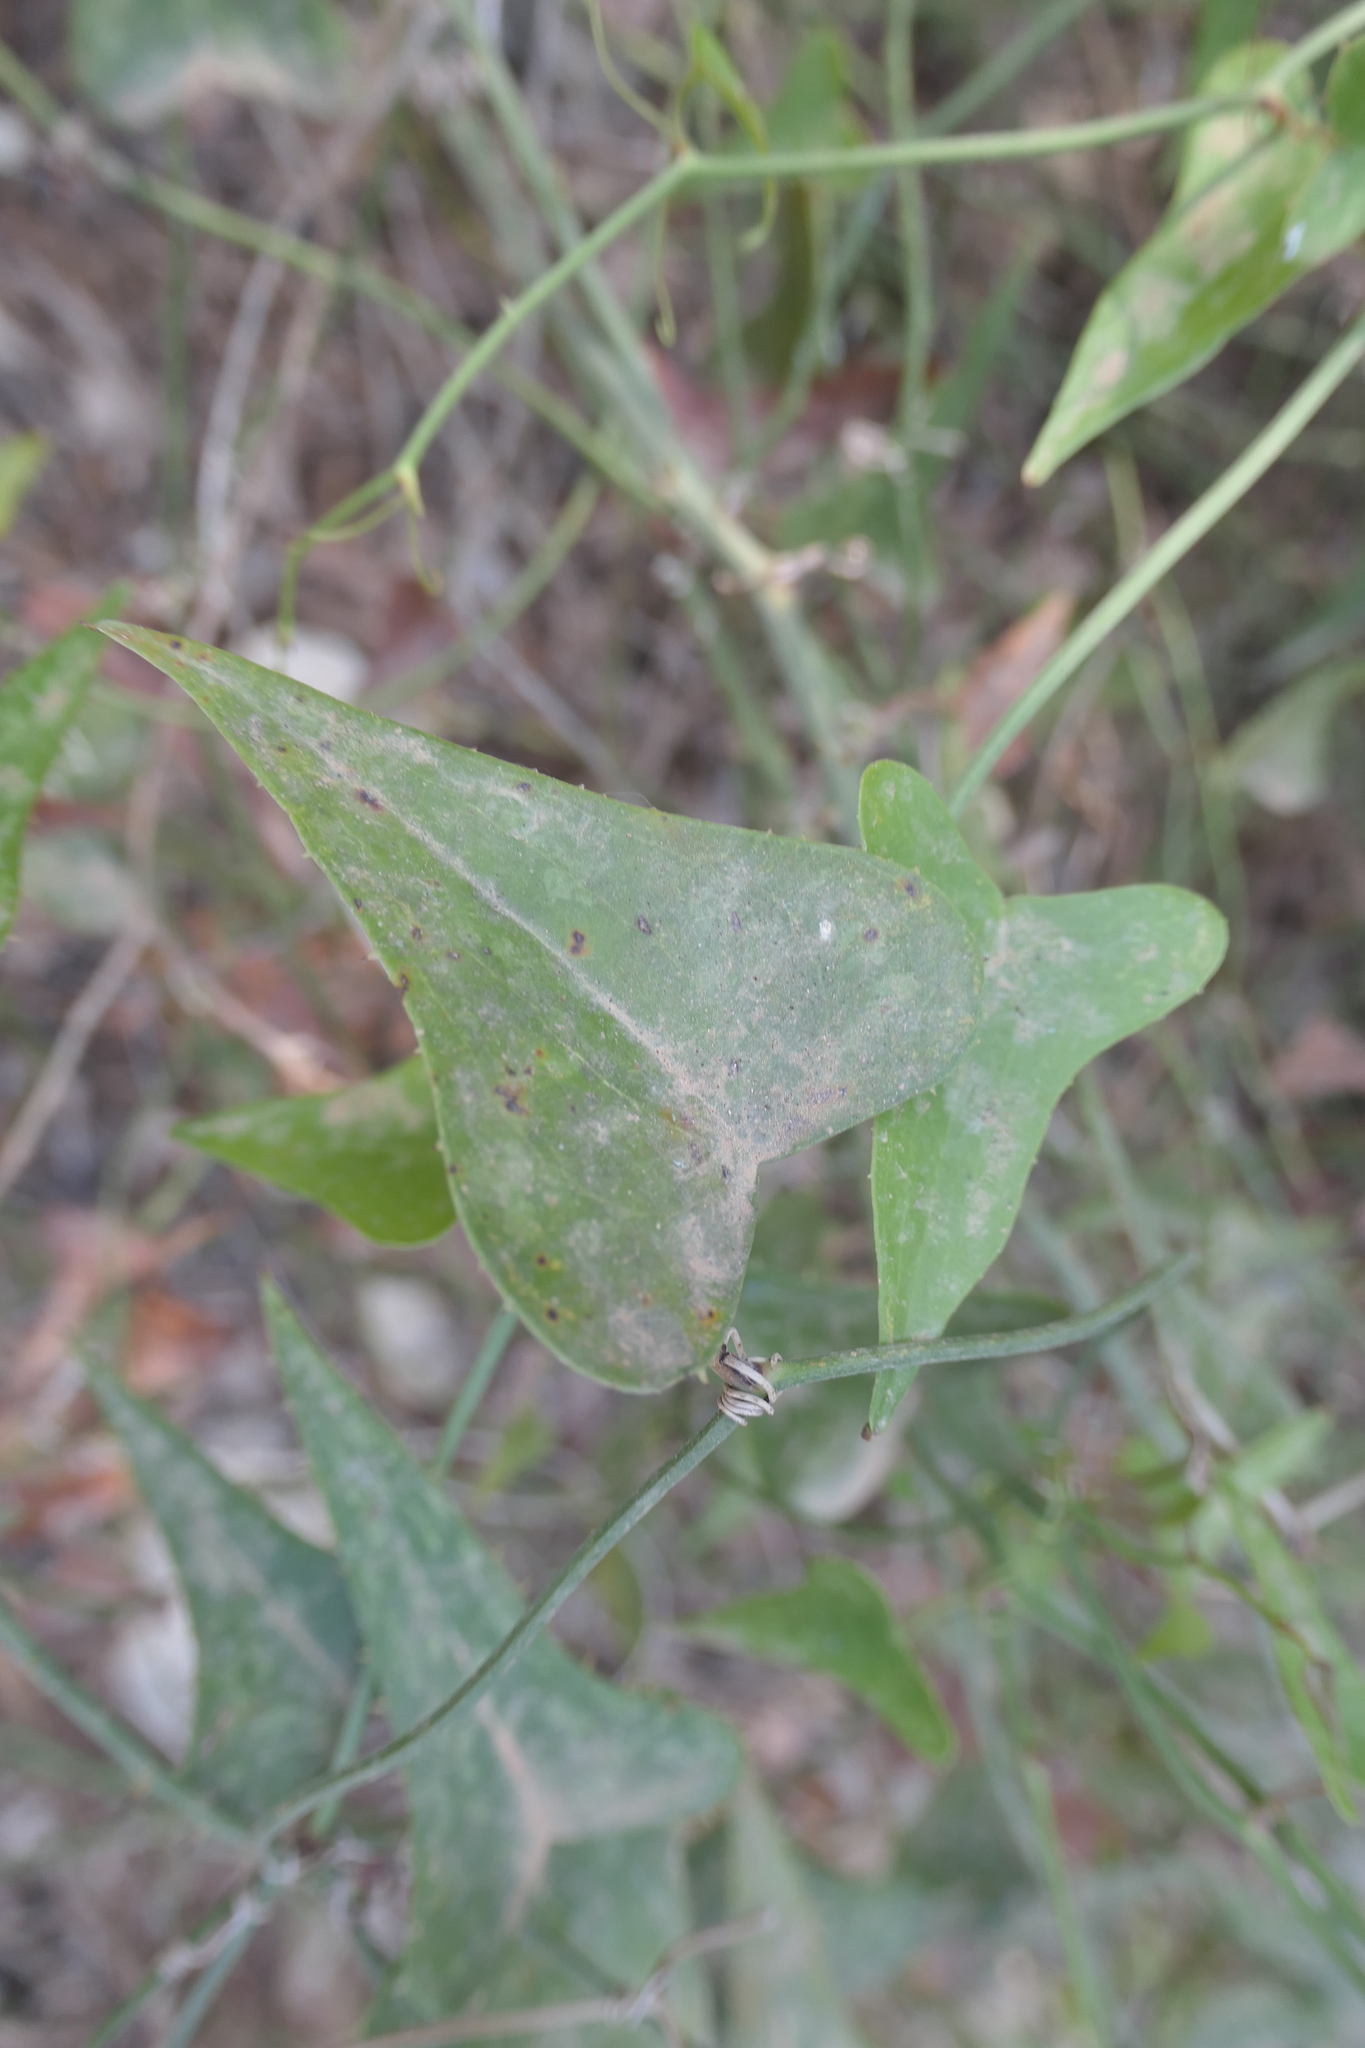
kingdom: Plantae
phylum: Tracheophyta
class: Liliopsida
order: Liliales
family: Smilacaceae
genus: Smilax
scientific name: Smilax aspera
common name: Common smilax
